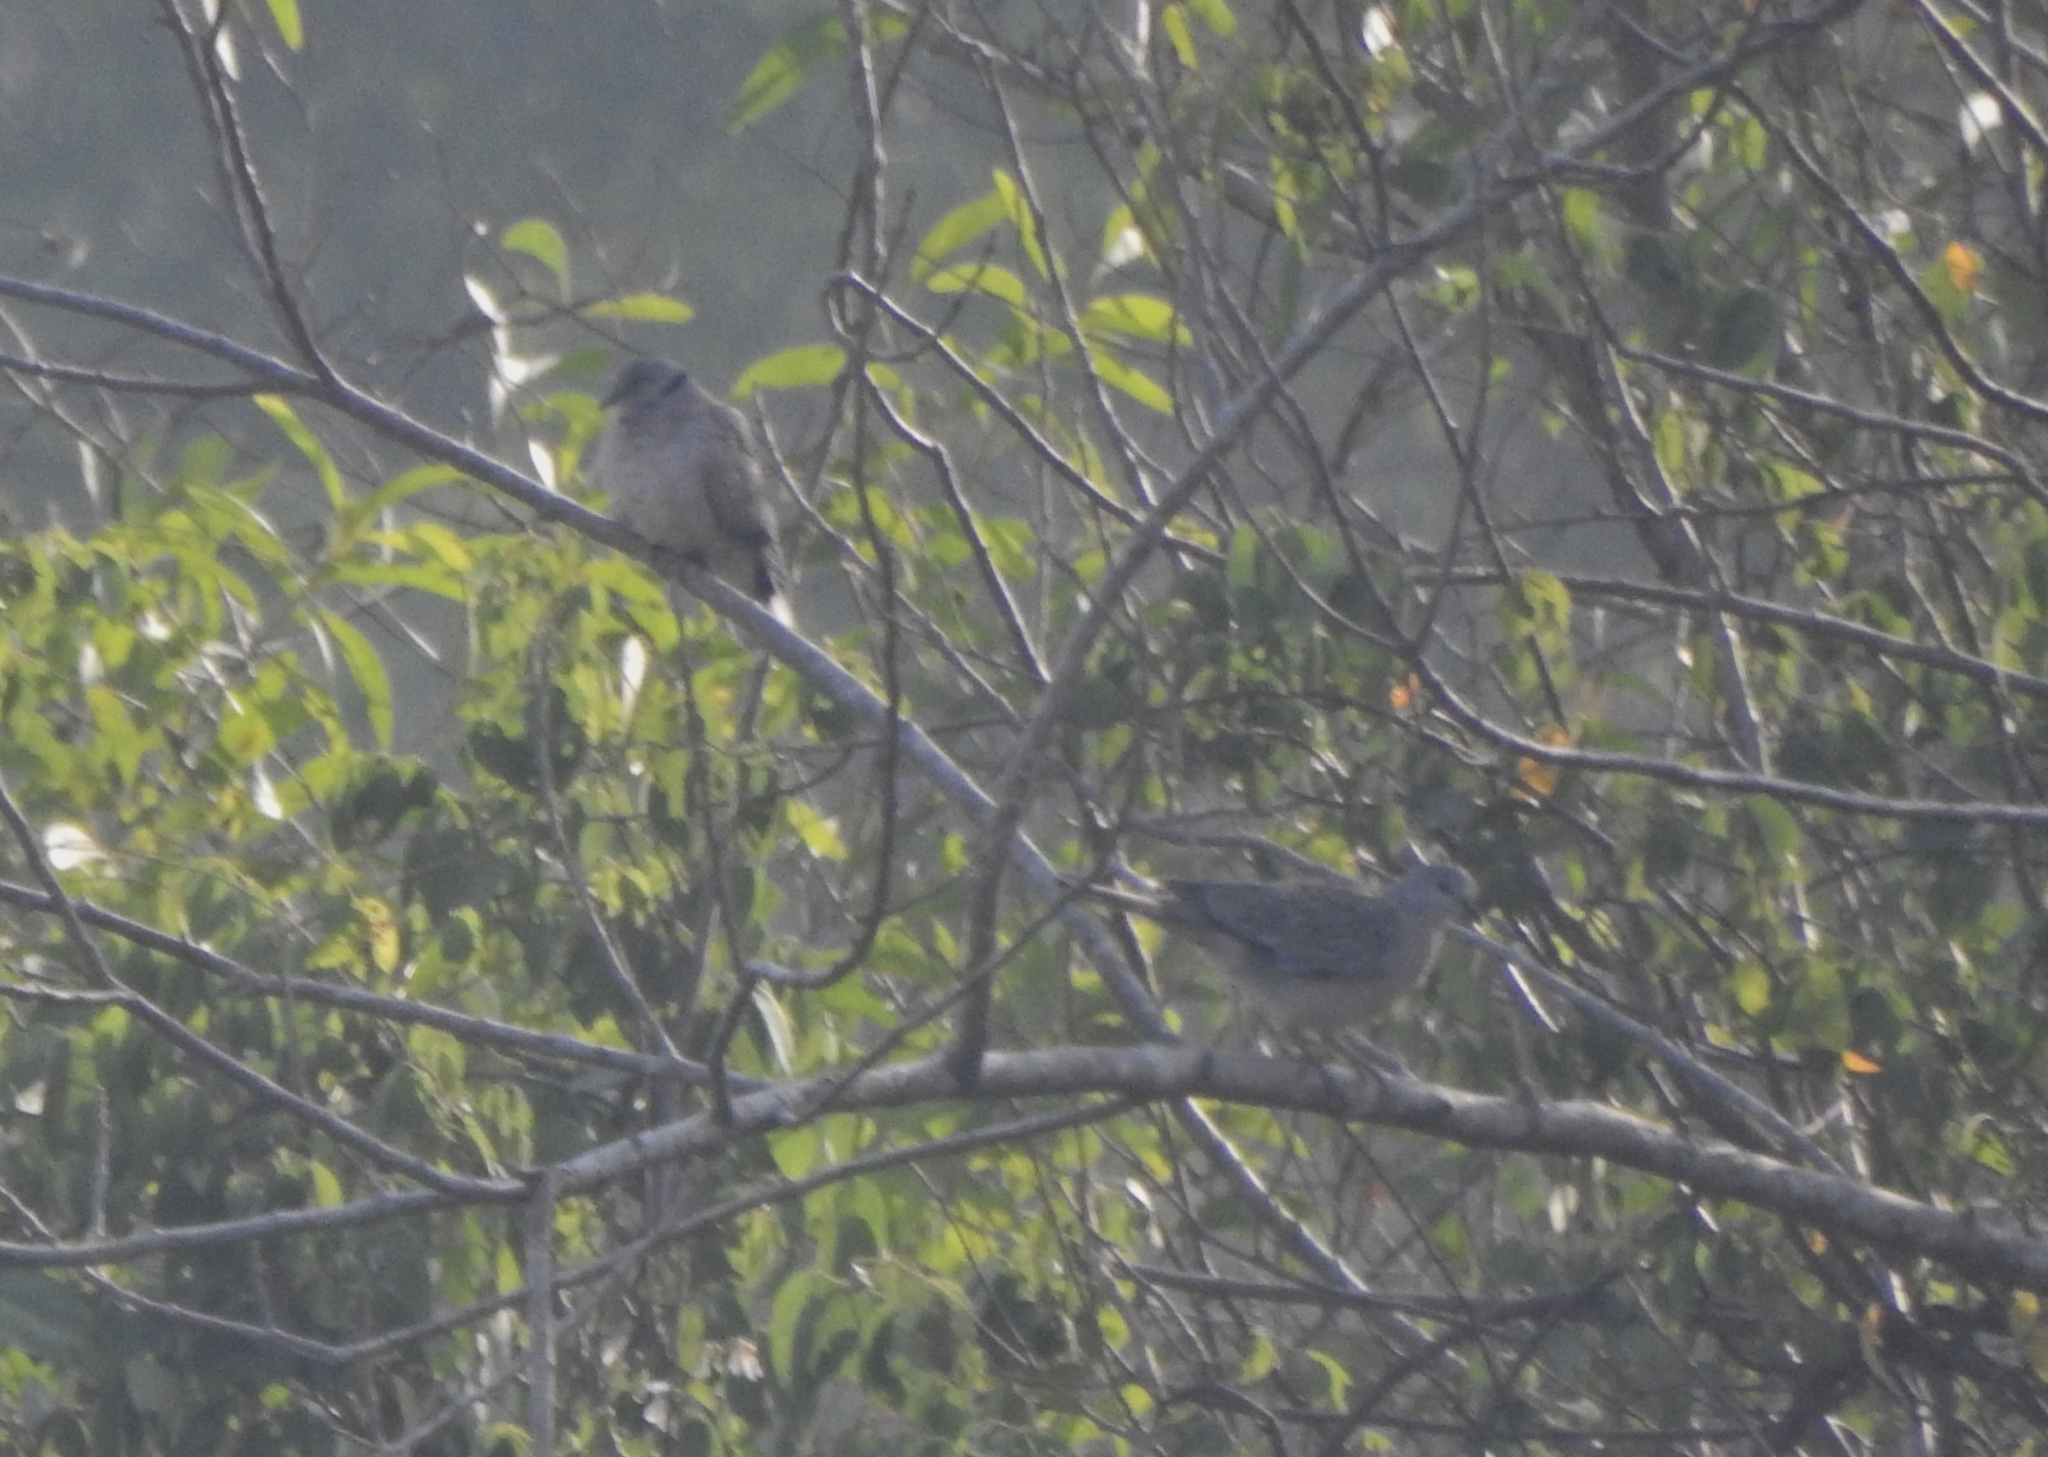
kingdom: Animalia
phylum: Chordata
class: Aves
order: Columbiformes
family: Columbidae
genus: Streptopelia
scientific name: Streptopelia decaocto
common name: Eurasian collared dove
